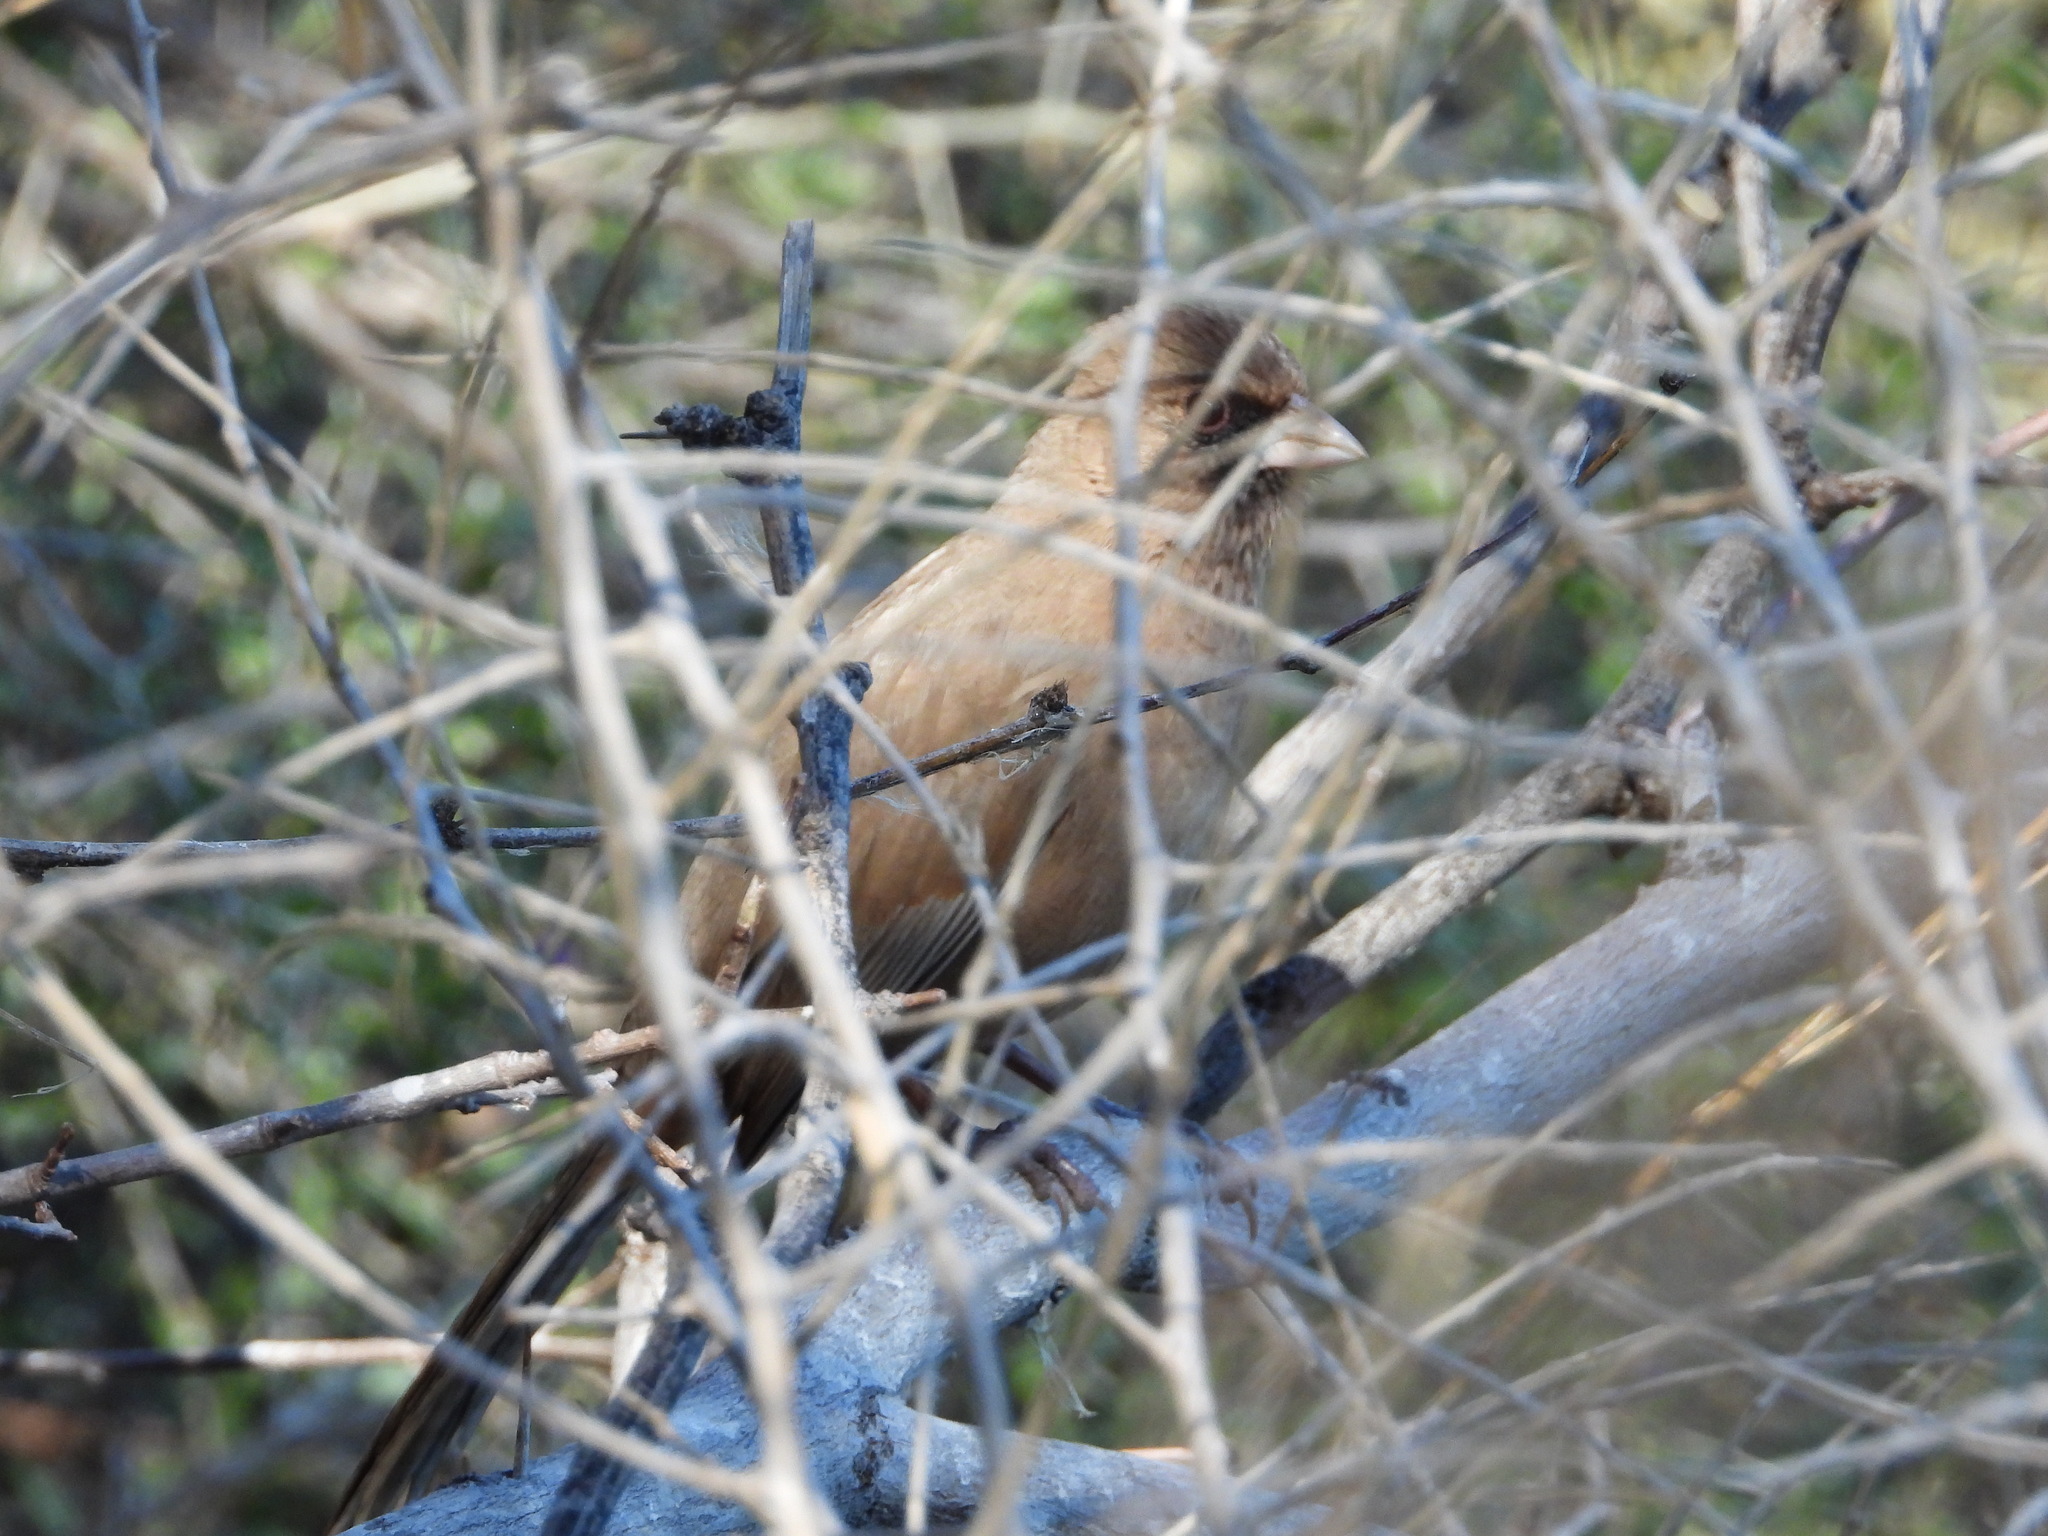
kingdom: Animalia
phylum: Chordata
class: Aves
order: Passeriformes
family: Passerellidae
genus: Melozone
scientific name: Melozone aberti
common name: Abert's towhee
